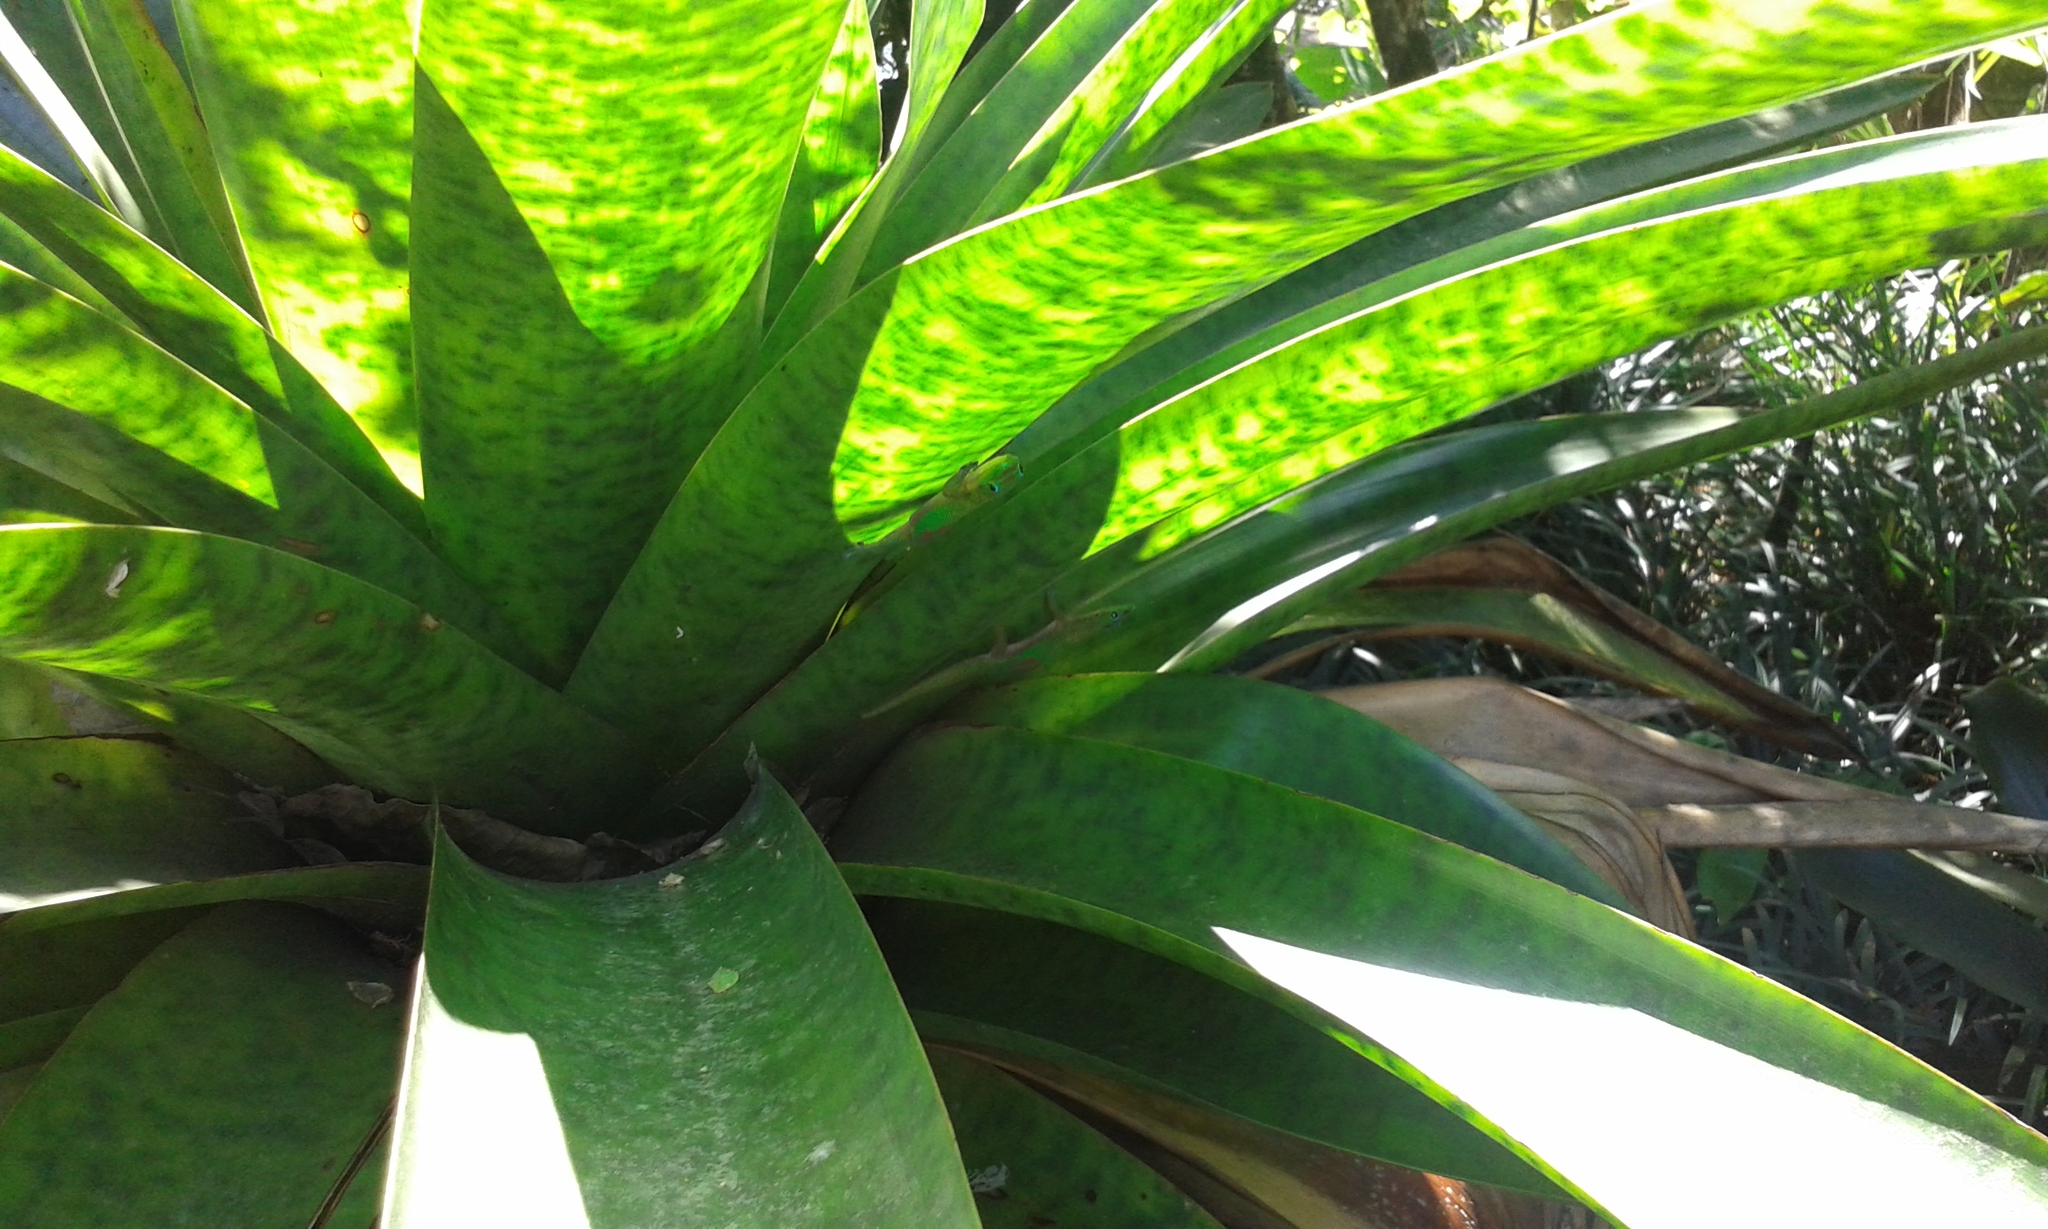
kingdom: Animalia
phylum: Chordata
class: Squamata
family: Gekkonidae
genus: Phelsuma
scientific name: Phelsuma laticauda
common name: Gold dust day gecko
